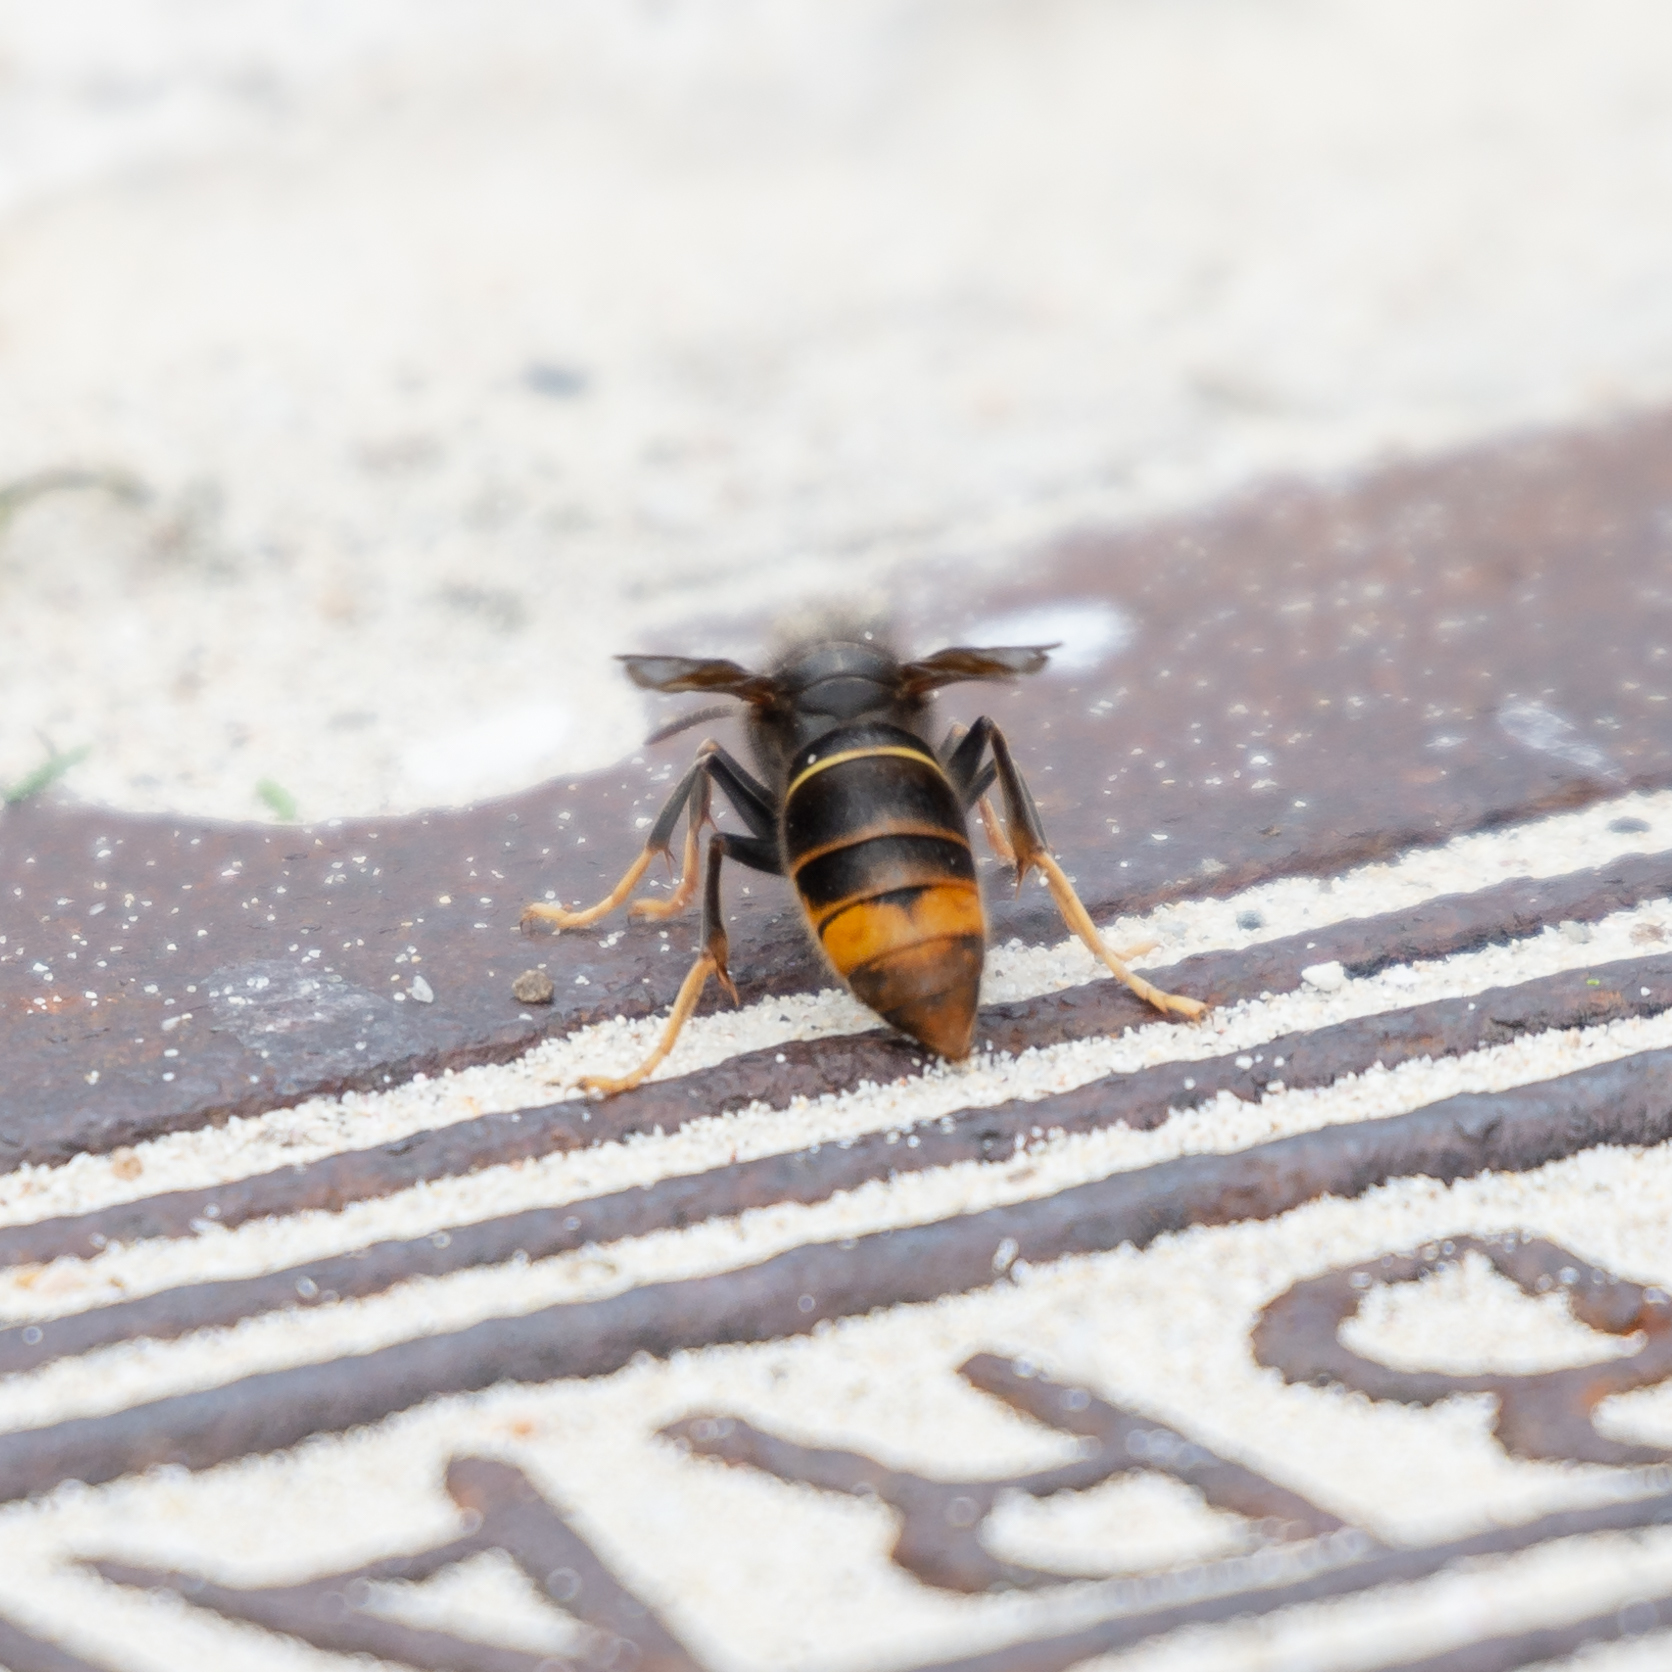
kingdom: Animalia
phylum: Arthropoda
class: Insecta
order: Hymenoptera
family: Vespidae
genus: Vespa
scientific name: Vespa velutina
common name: Asian hornet
